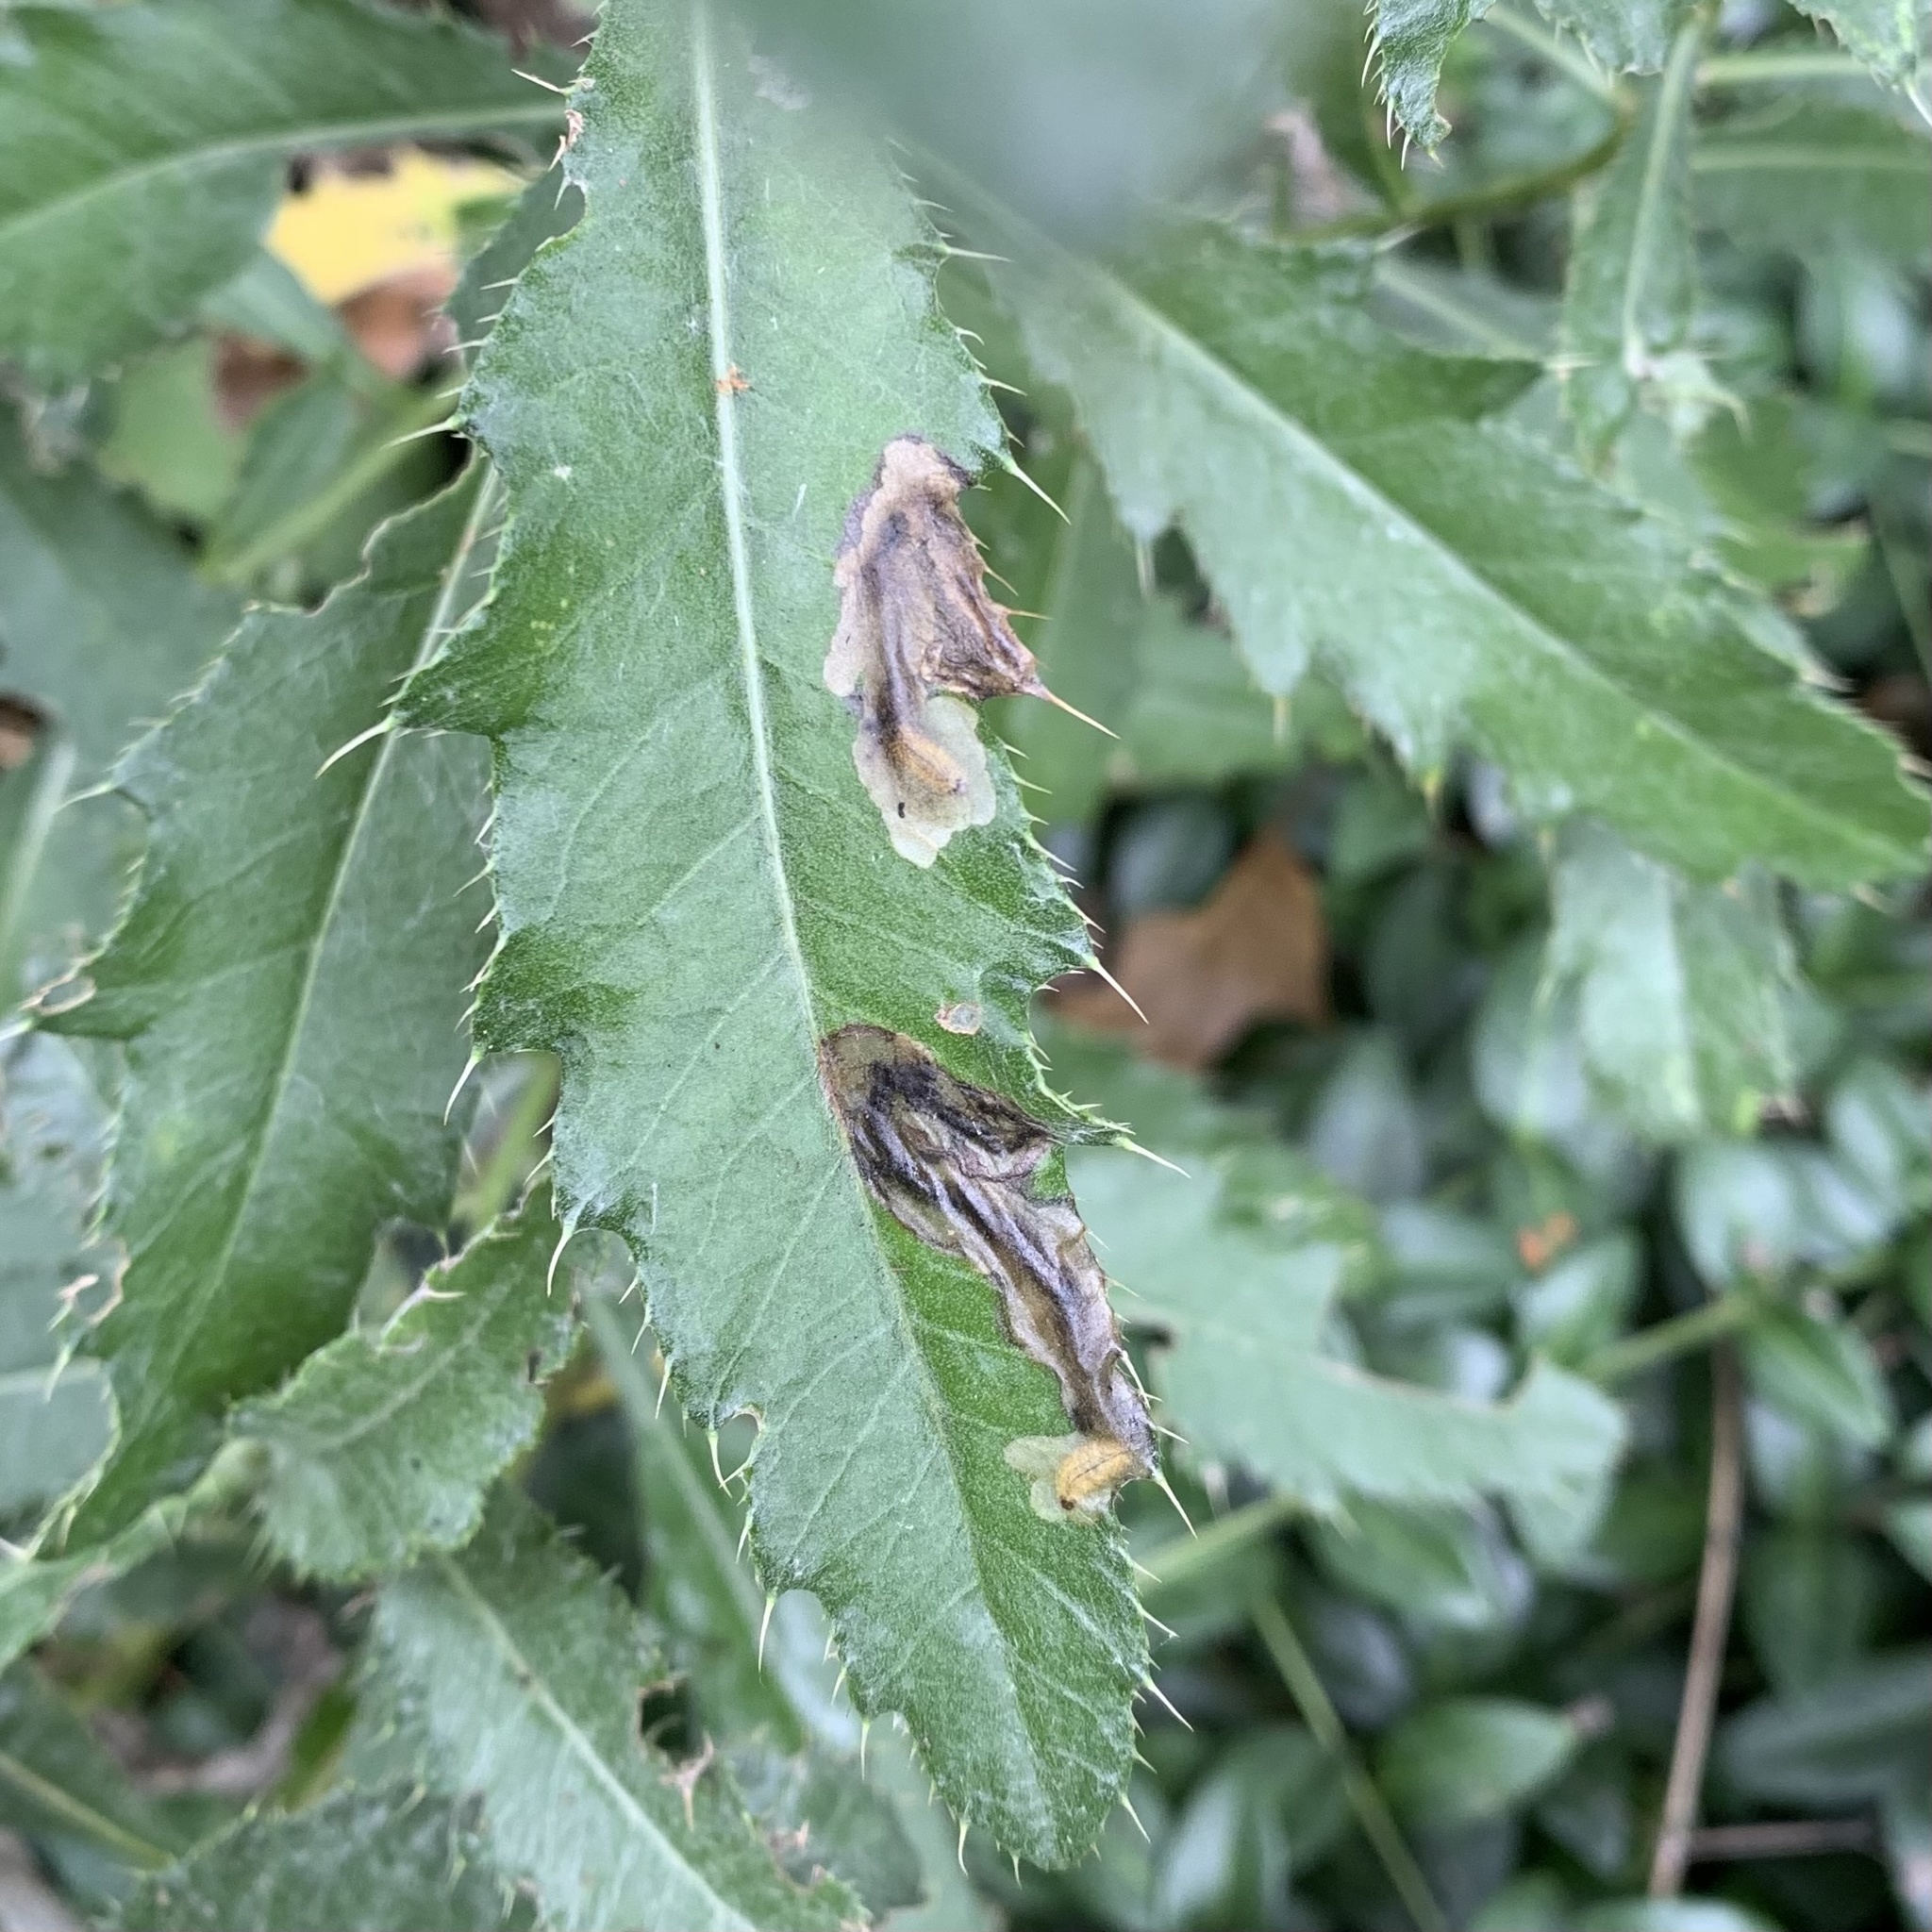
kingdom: Animalia
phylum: Arthropoda
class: Insecta
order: Coleoptera
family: Chrysomelidae
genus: Oulema
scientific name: Oulema palustris
